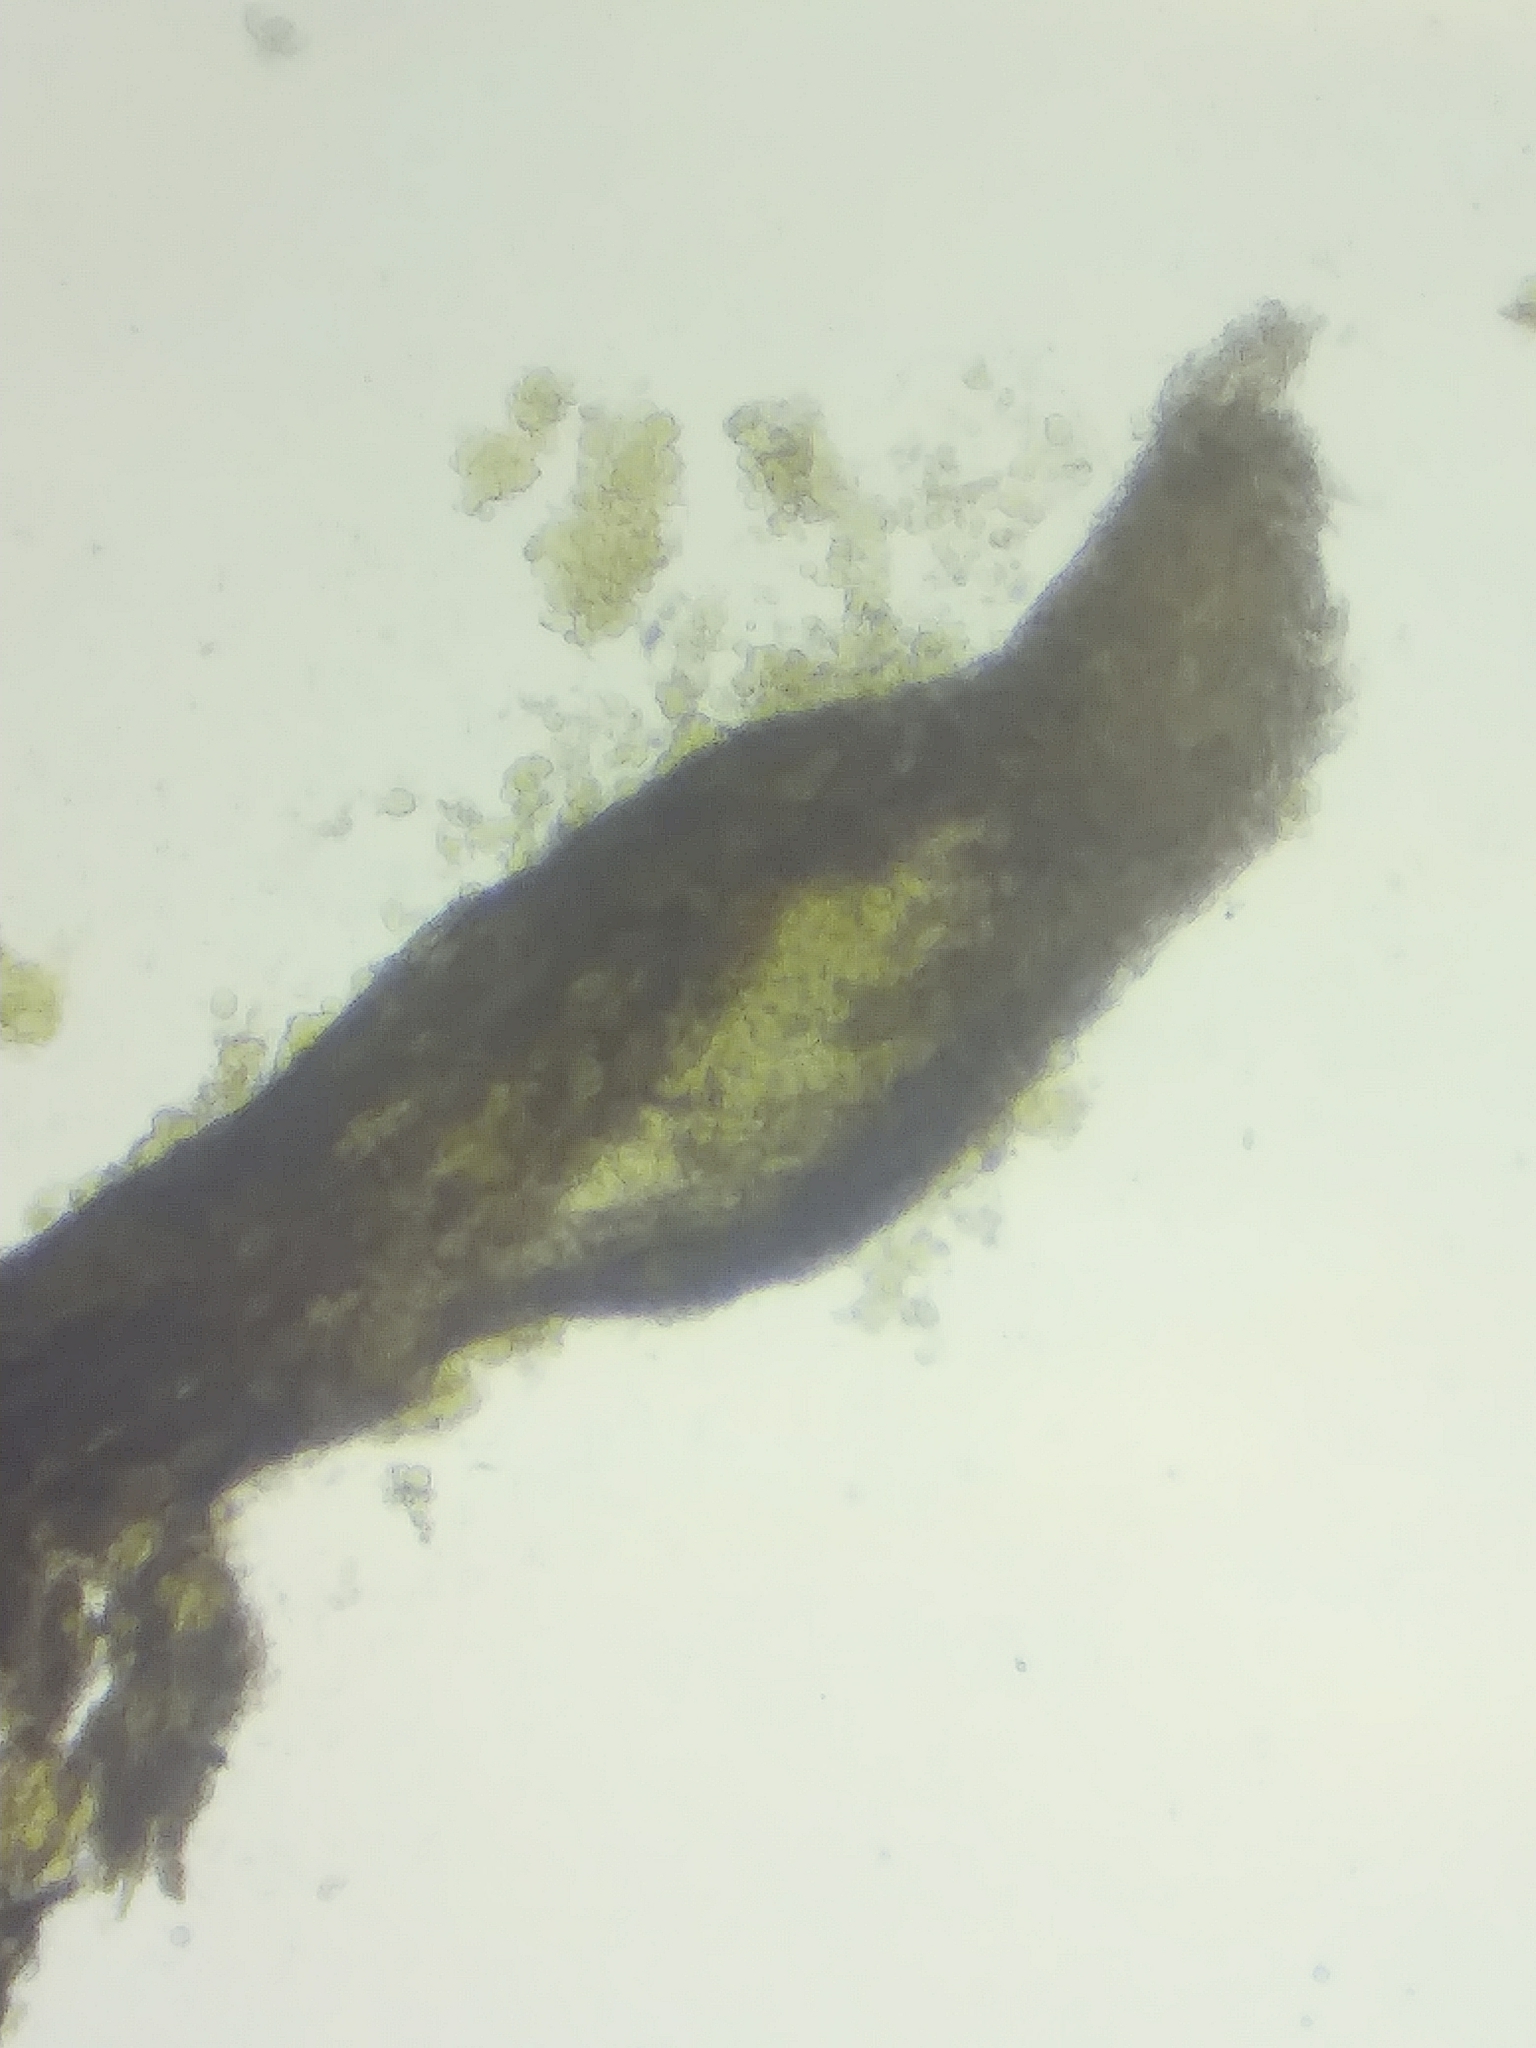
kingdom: Fungi
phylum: Ascomycota
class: Eurotiomycetes
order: Mycocaliciales
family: Mycocaliciaceae
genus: Phaeocalicium
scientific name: Phaeocalicium polyporaeum
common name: Fairy pins
